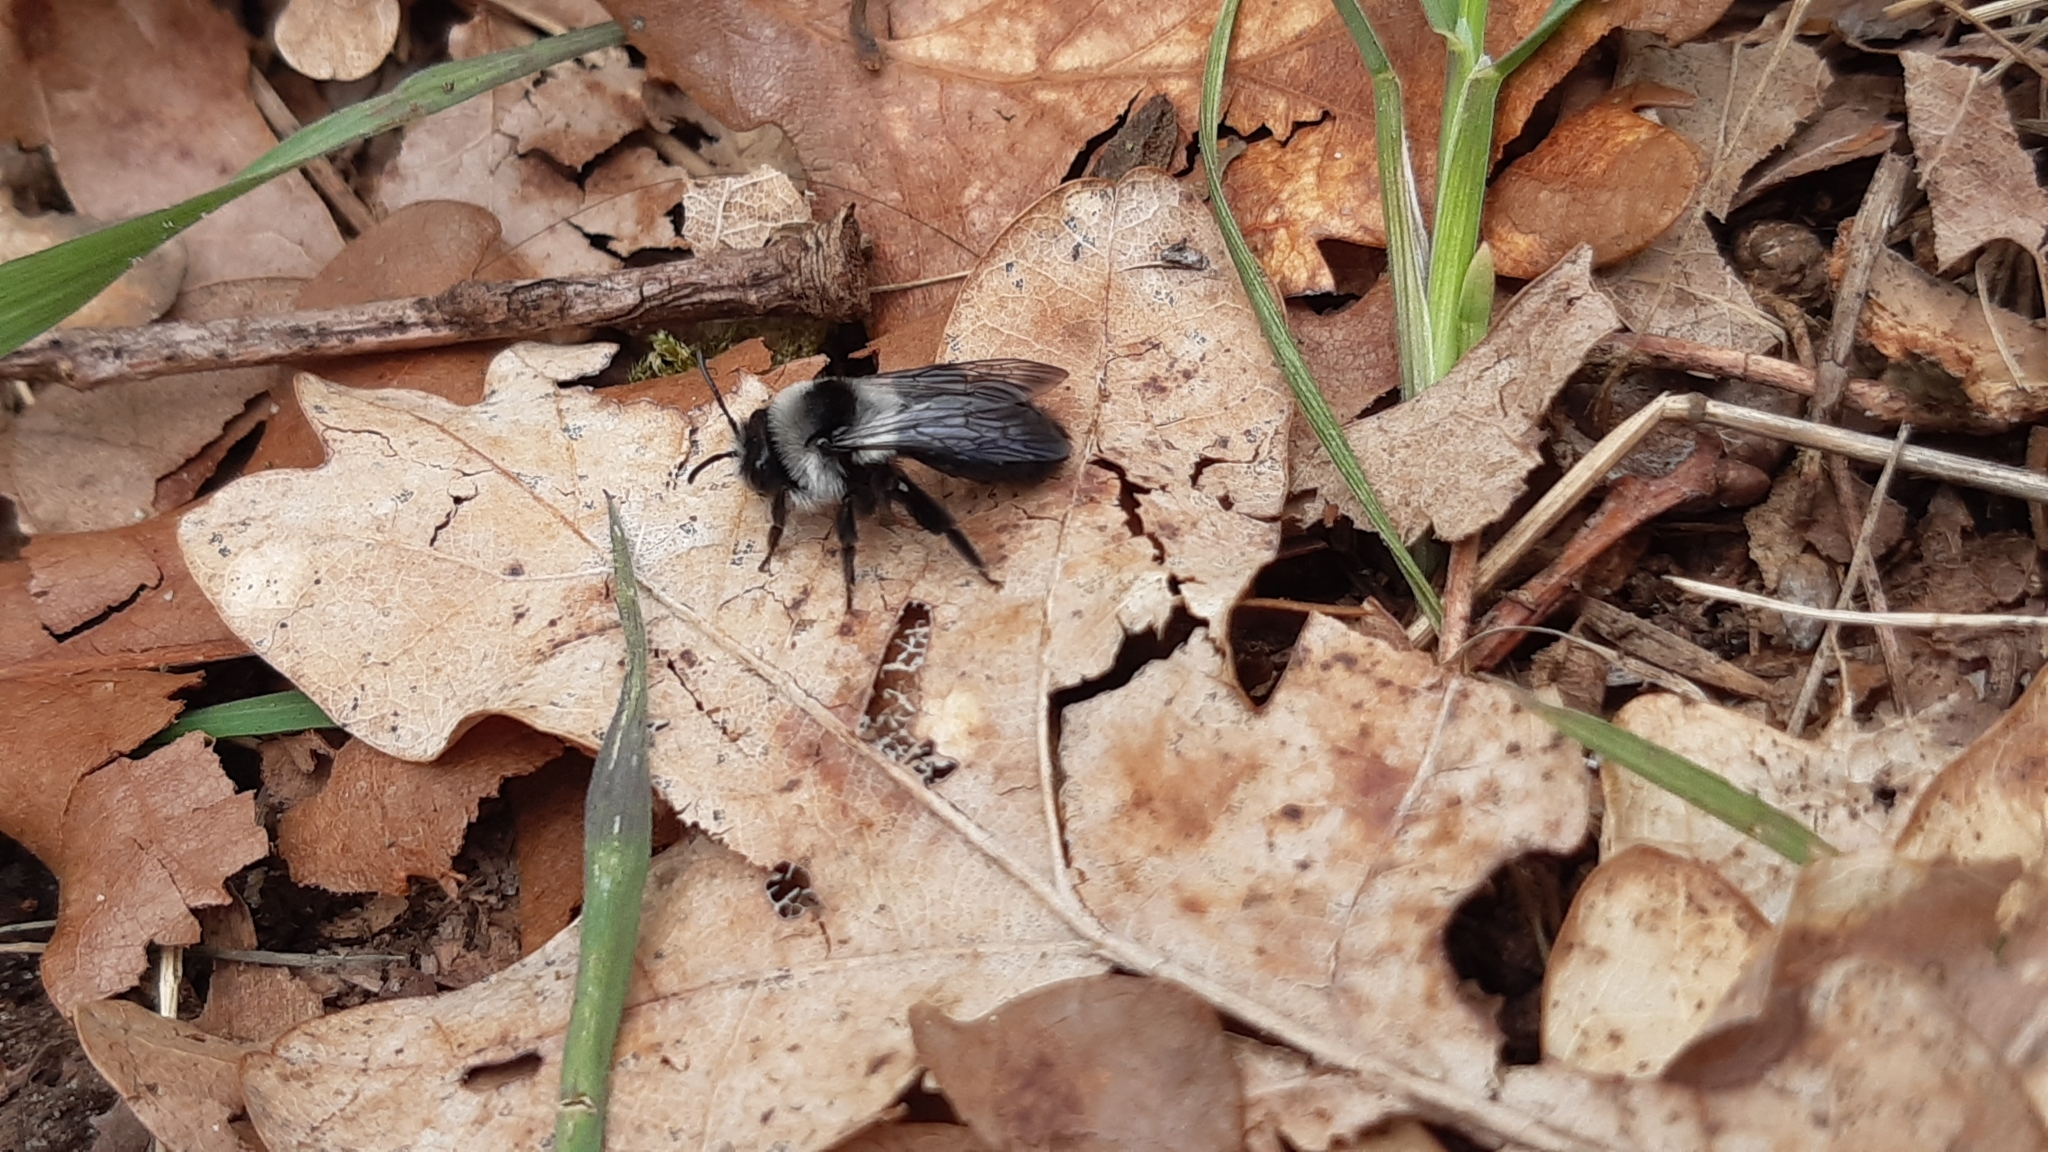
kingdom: Animalia
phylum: Arthropoda
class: Insecta
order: Hymenoptera
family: Andrenidae
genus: Andrena
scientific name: Andrena cineraria
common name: Ashy mining bee
